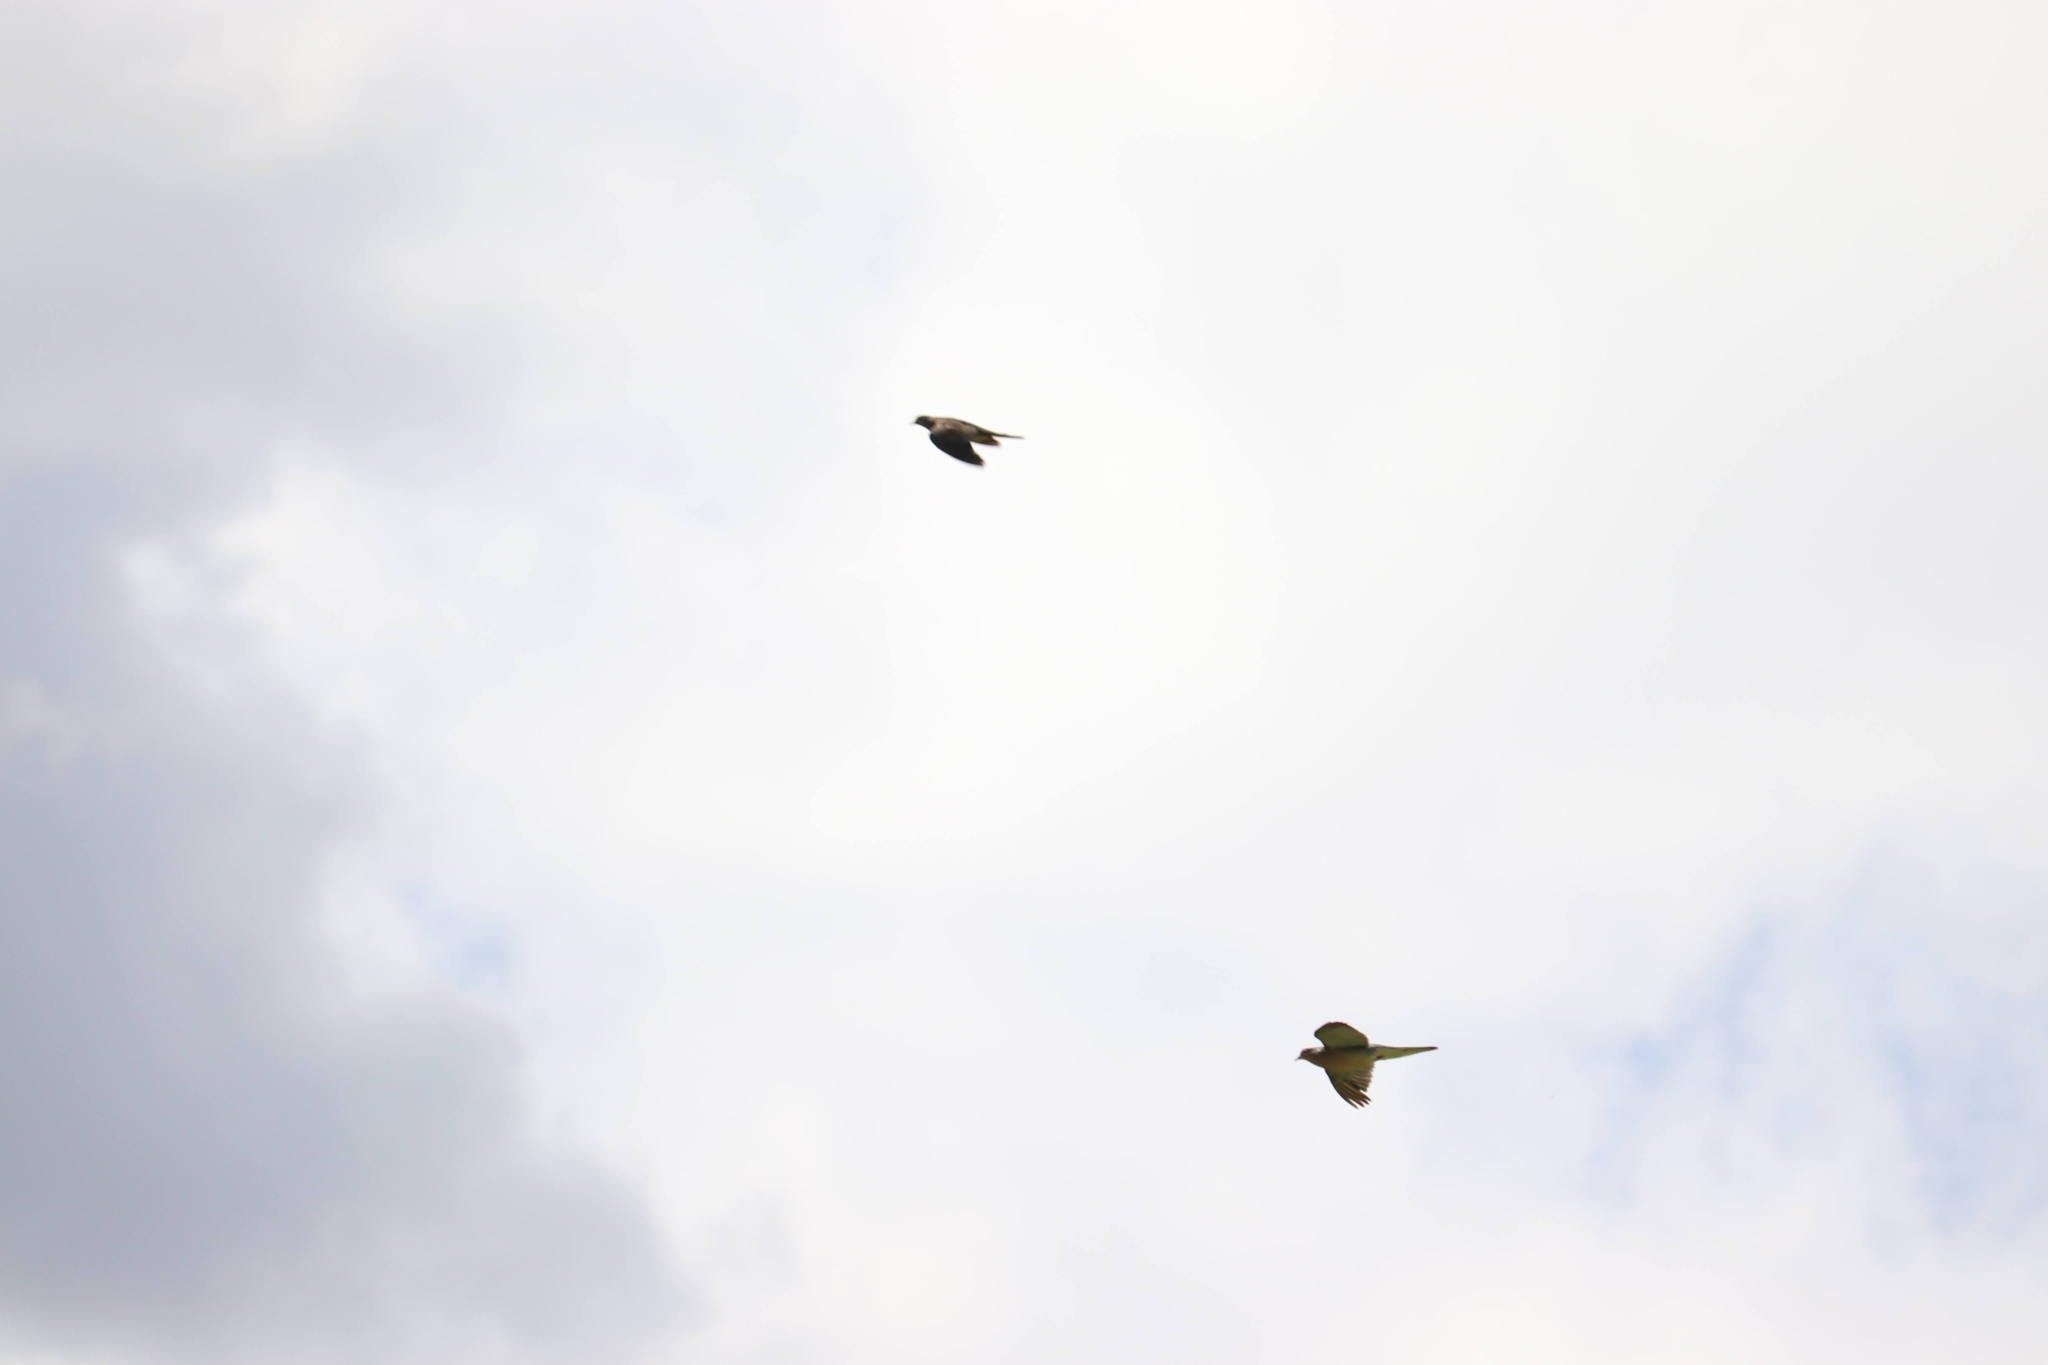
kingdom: Animalia
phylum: Chordata
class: Aves
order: Columbiformes
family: Columbidae
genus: Zenaida
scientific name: Zenaida macroura
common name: Mourning dove
